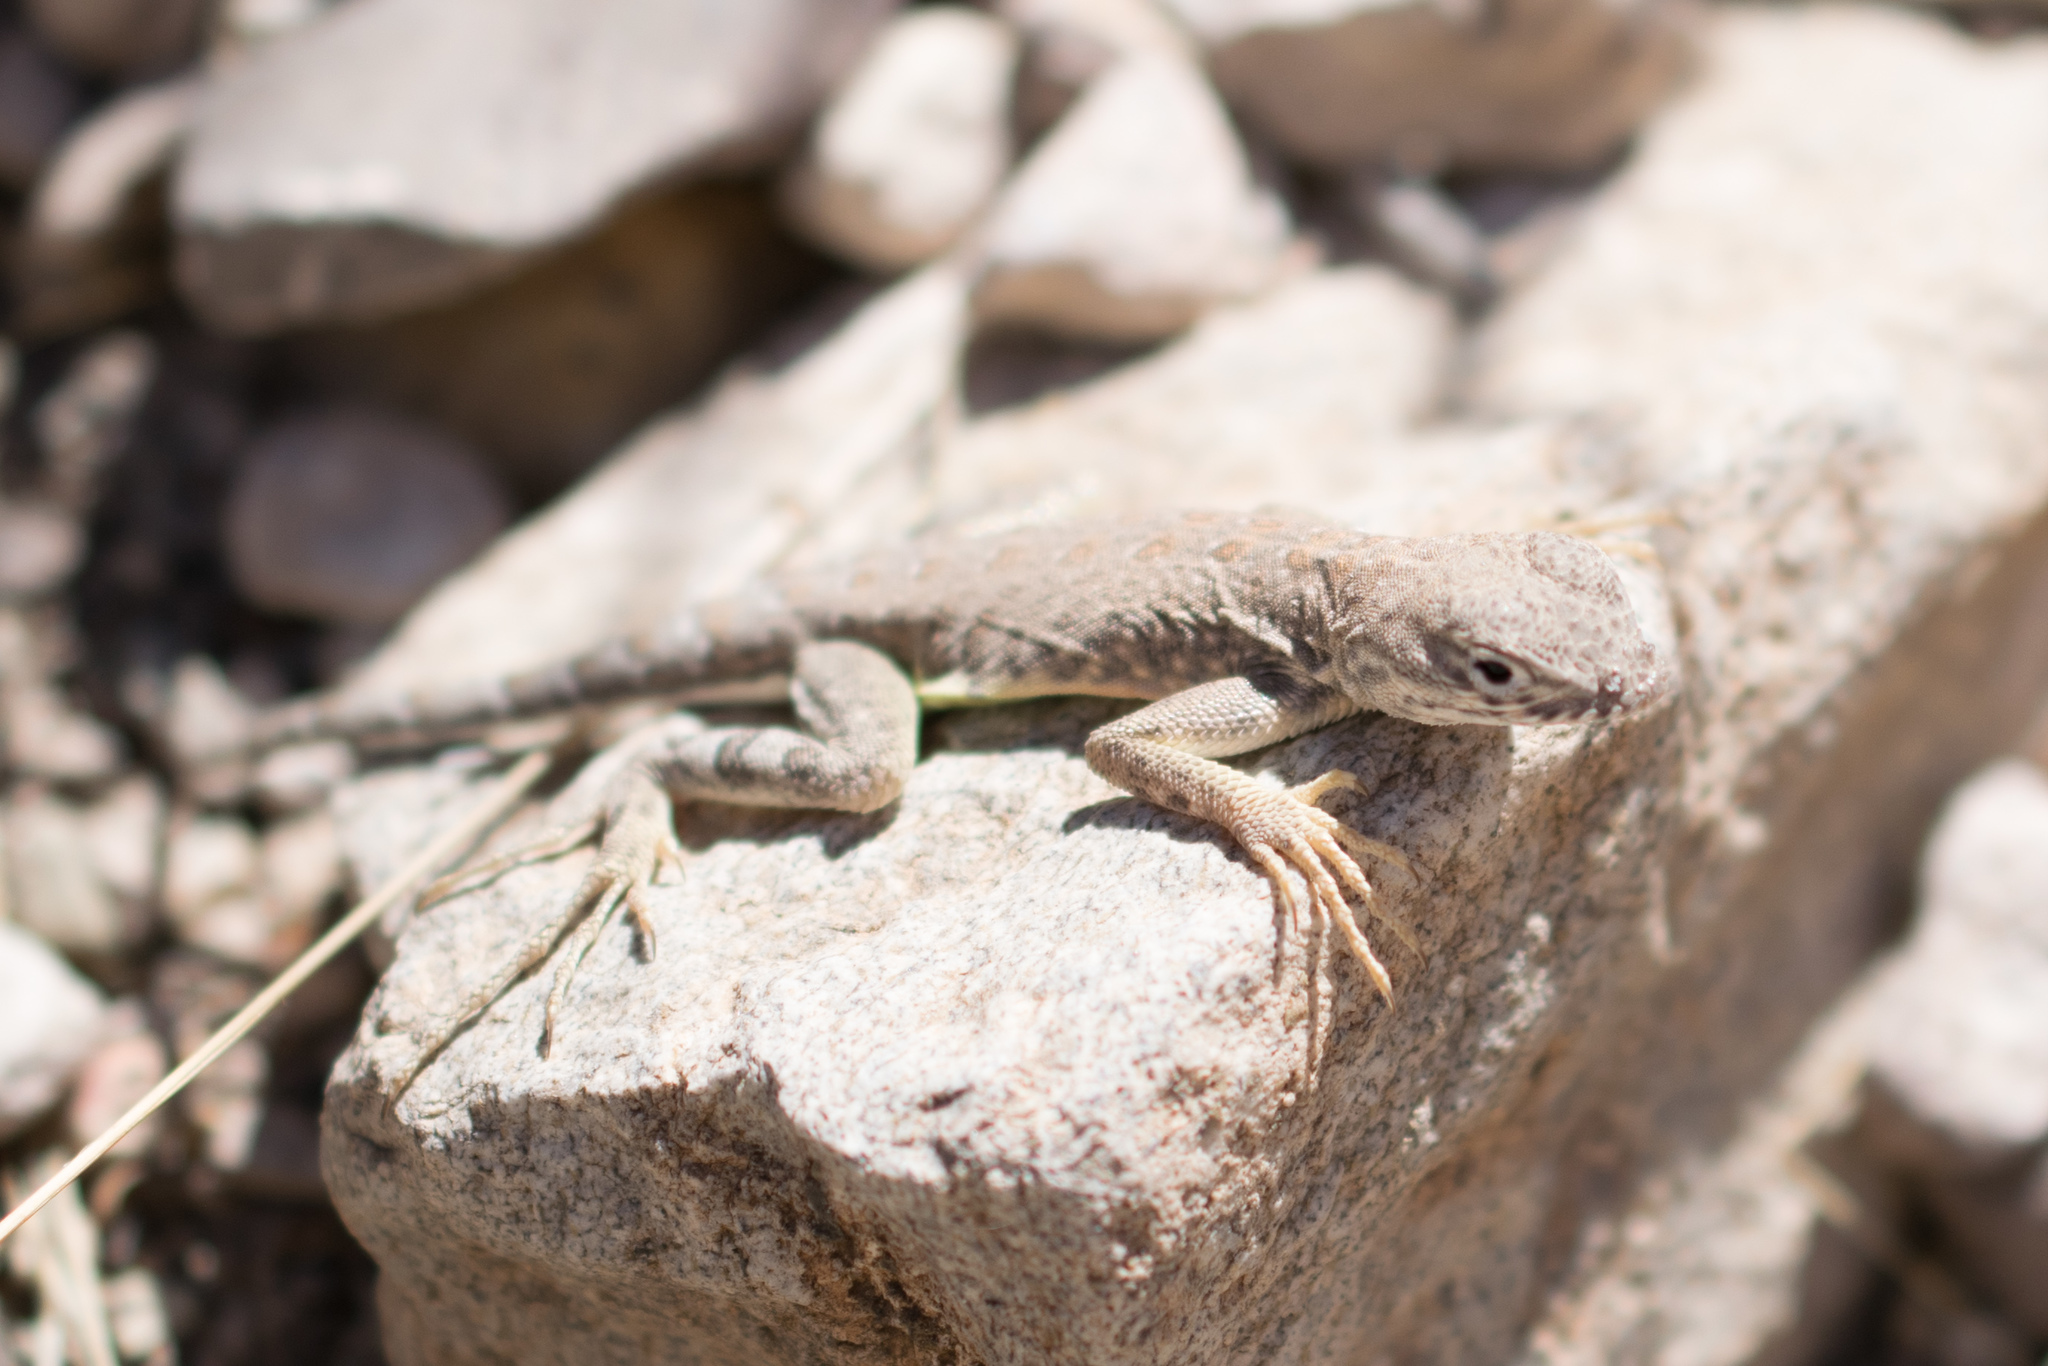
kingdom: Animalia
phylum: Chordata
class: Squamata
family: Phrynosomatidae
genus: Cophosaurus
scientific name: Cophosaurus texanus
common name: Greater earless lizard
